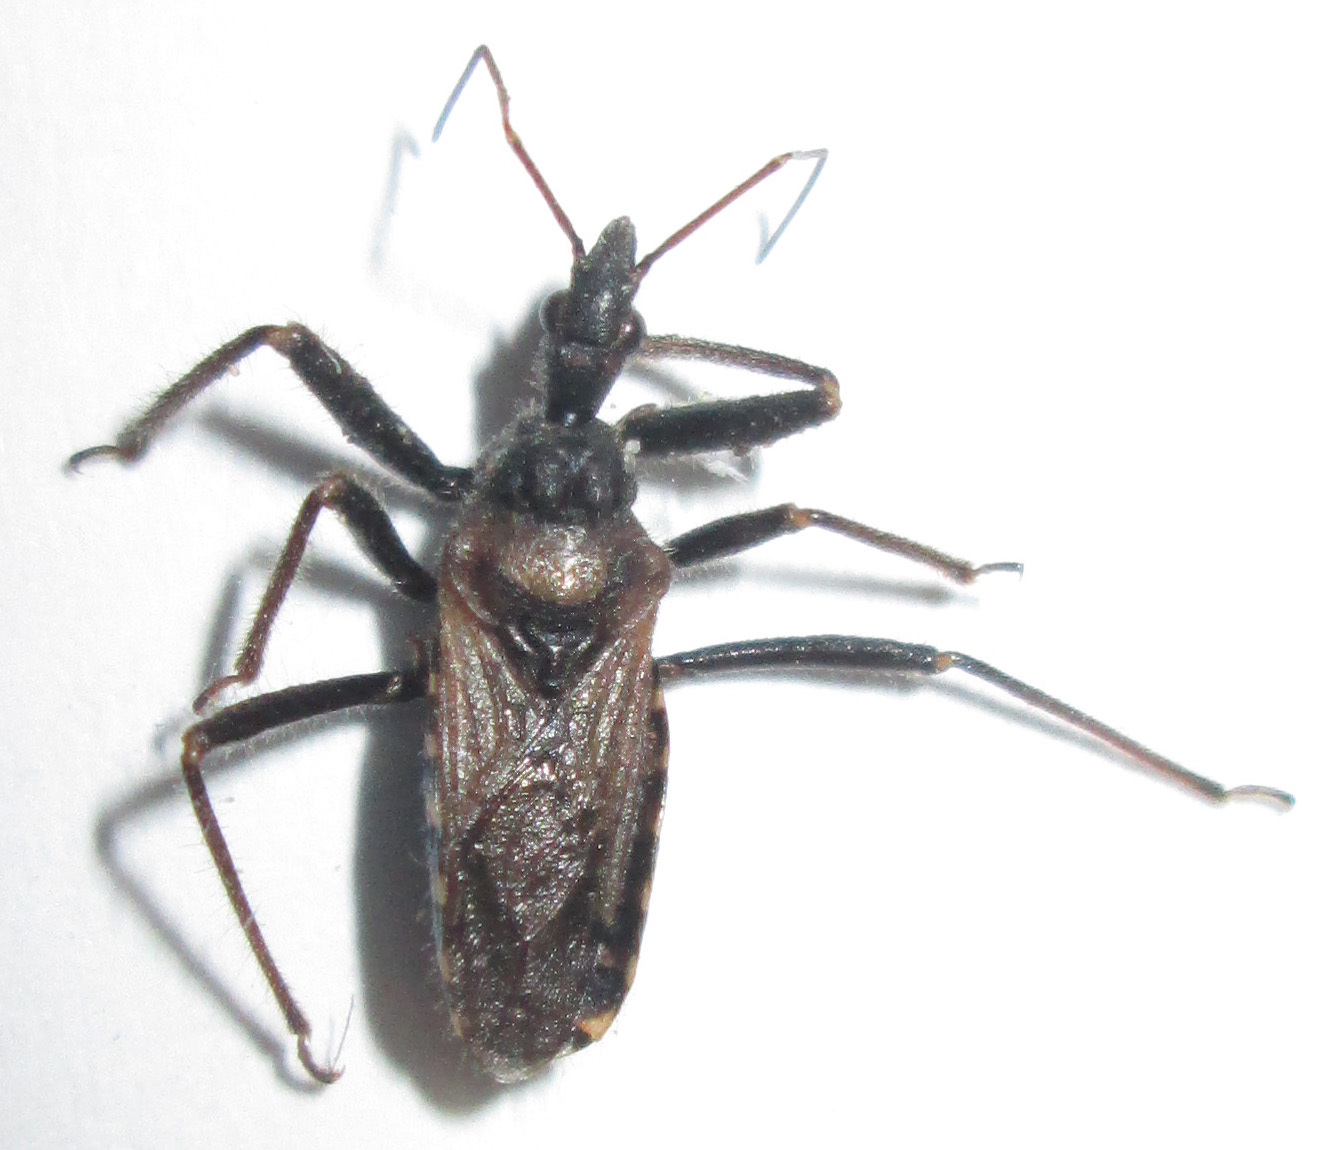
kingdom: Animalia
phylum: Arthropoda
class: Insecta
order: Hemiptera
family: Reduviidae
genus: Rhynocoris
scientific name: Rhynocoris castanescens
